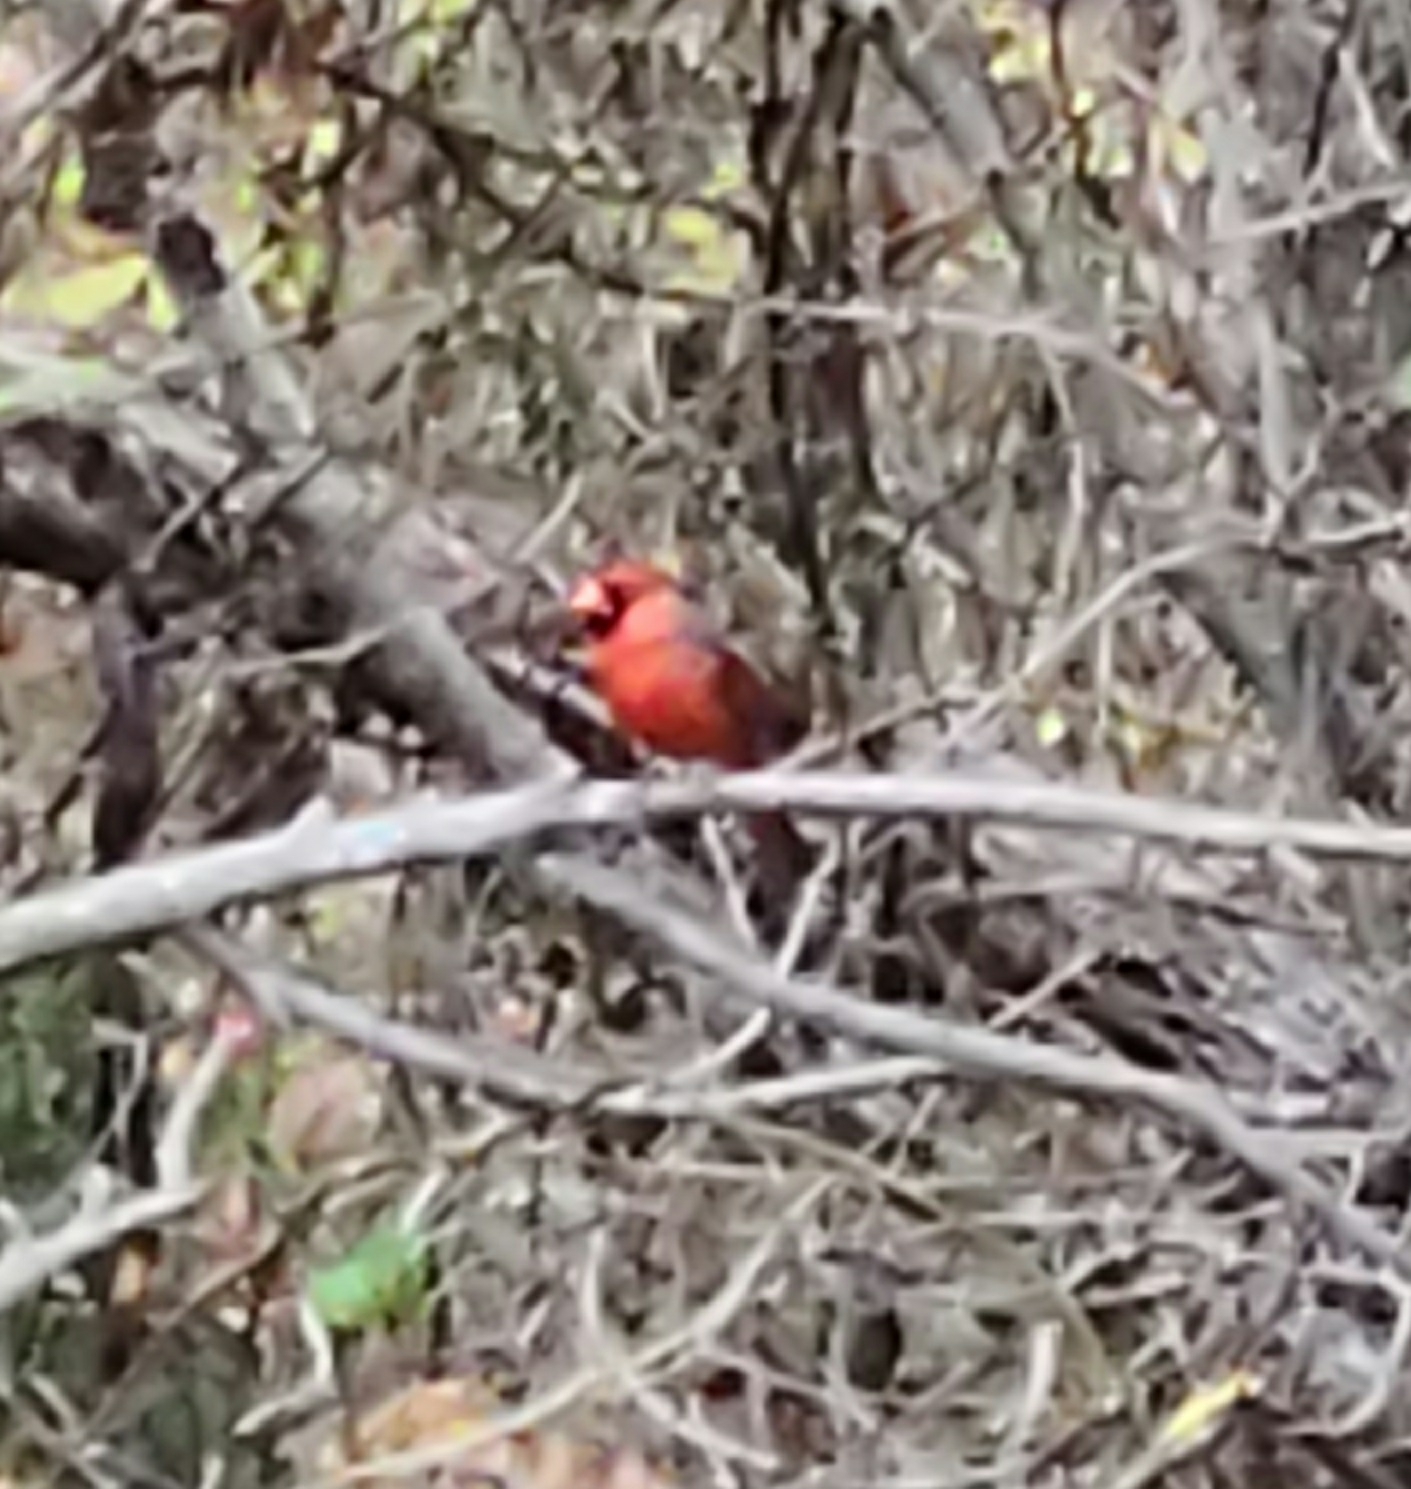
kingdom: Animalia
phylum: Chordata
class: Aves
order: Passeriformes
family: Cardinalidae
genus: Cardinalis
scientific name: Cardinalis cardinalis
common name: Northern cardinal
